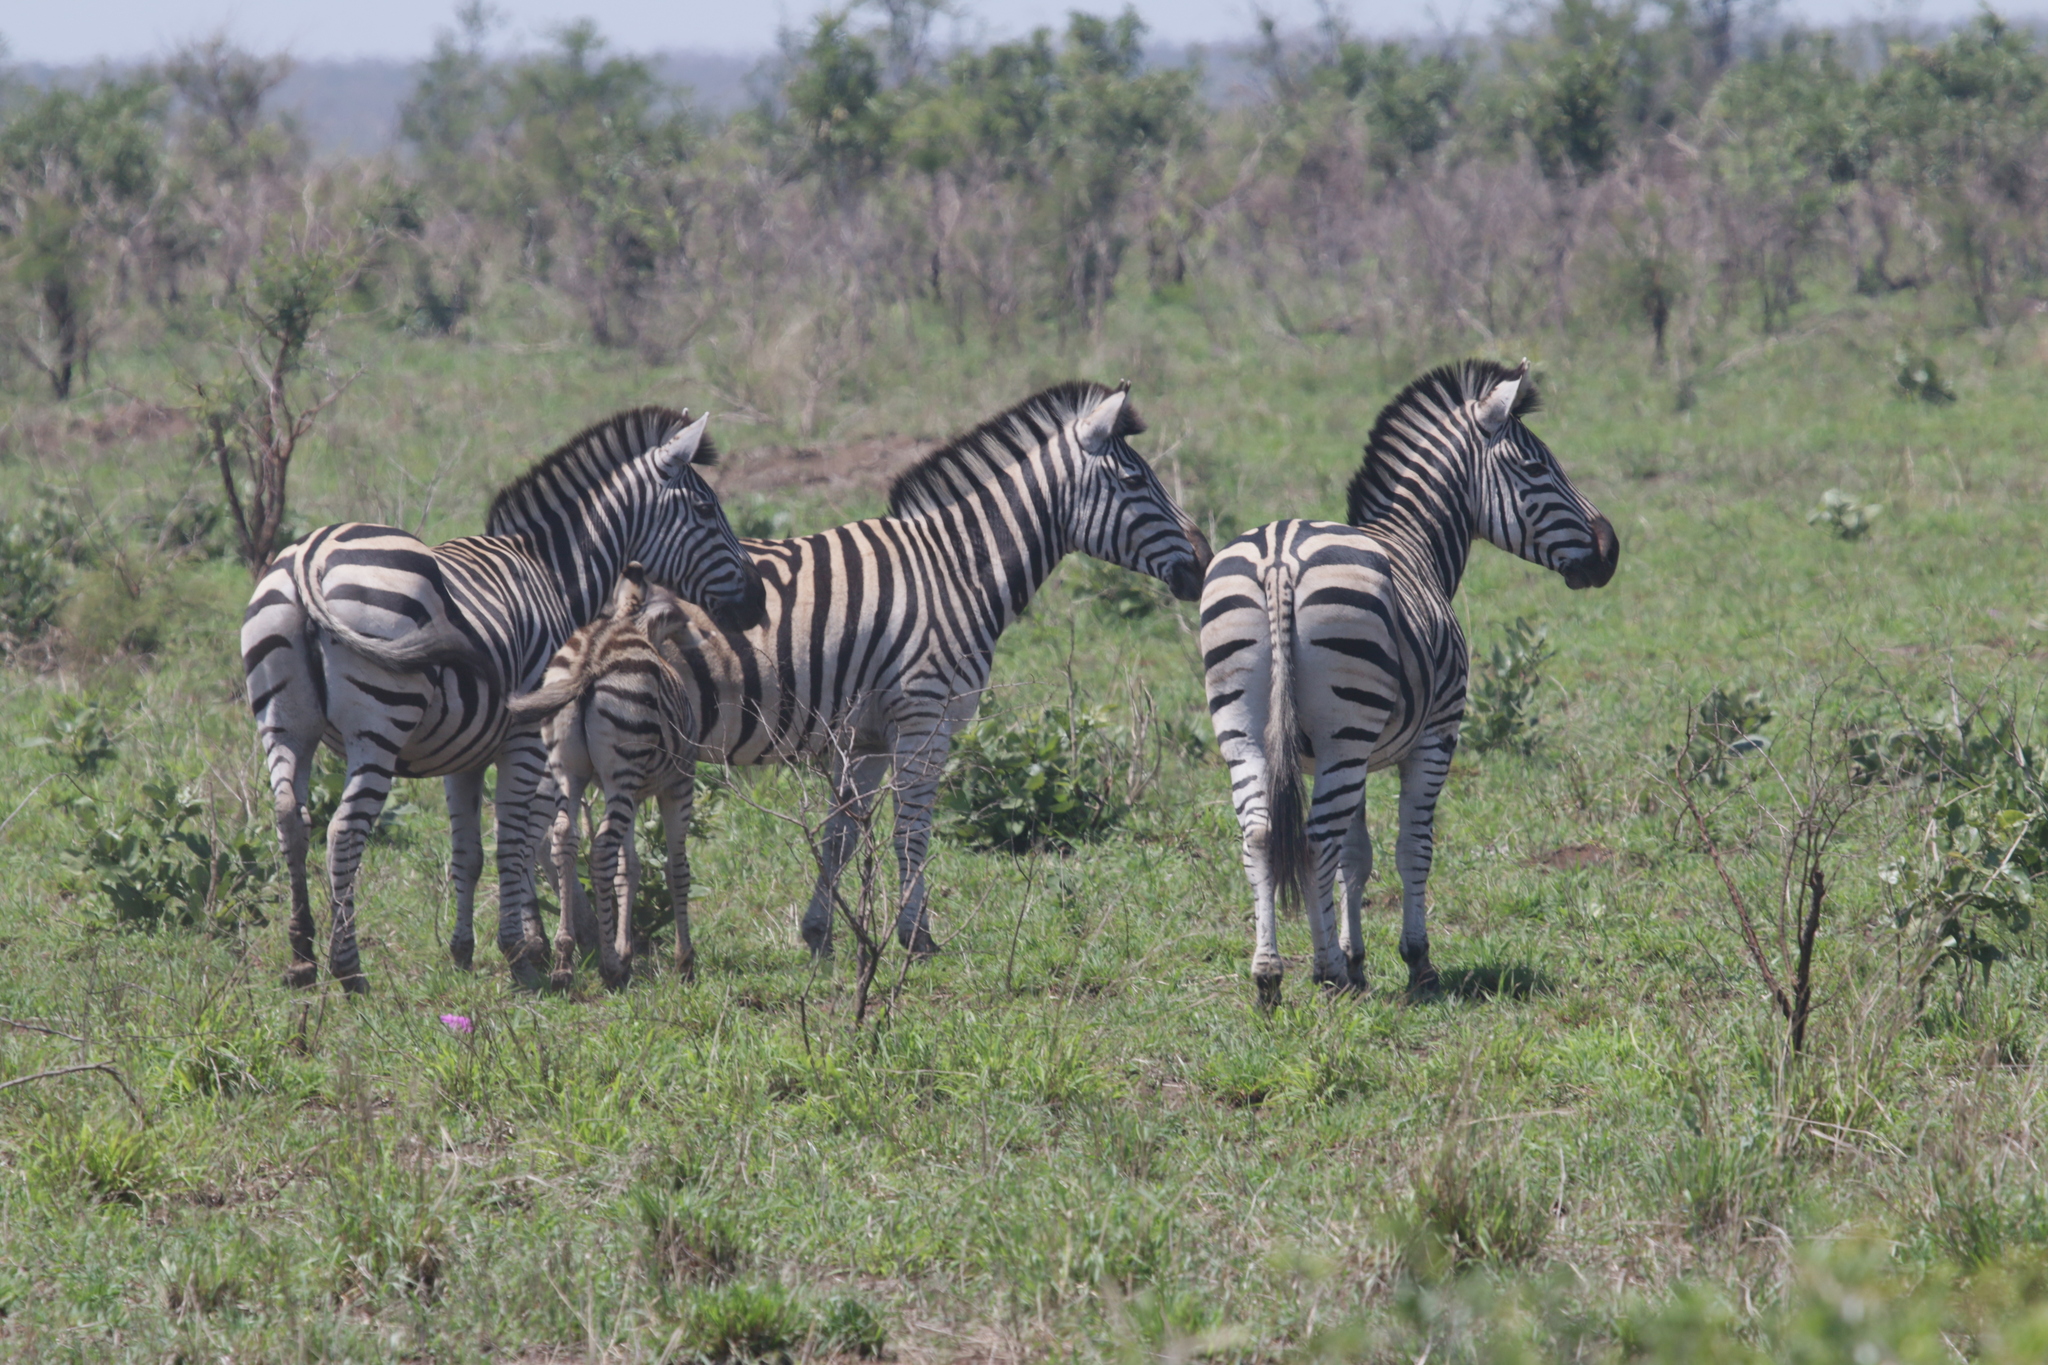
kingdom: Animalia
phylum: Chordata
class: Mammalia
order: Perissodactyla
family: Equidae
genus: Equus
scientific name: Equus quagga
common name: Plains zebra
